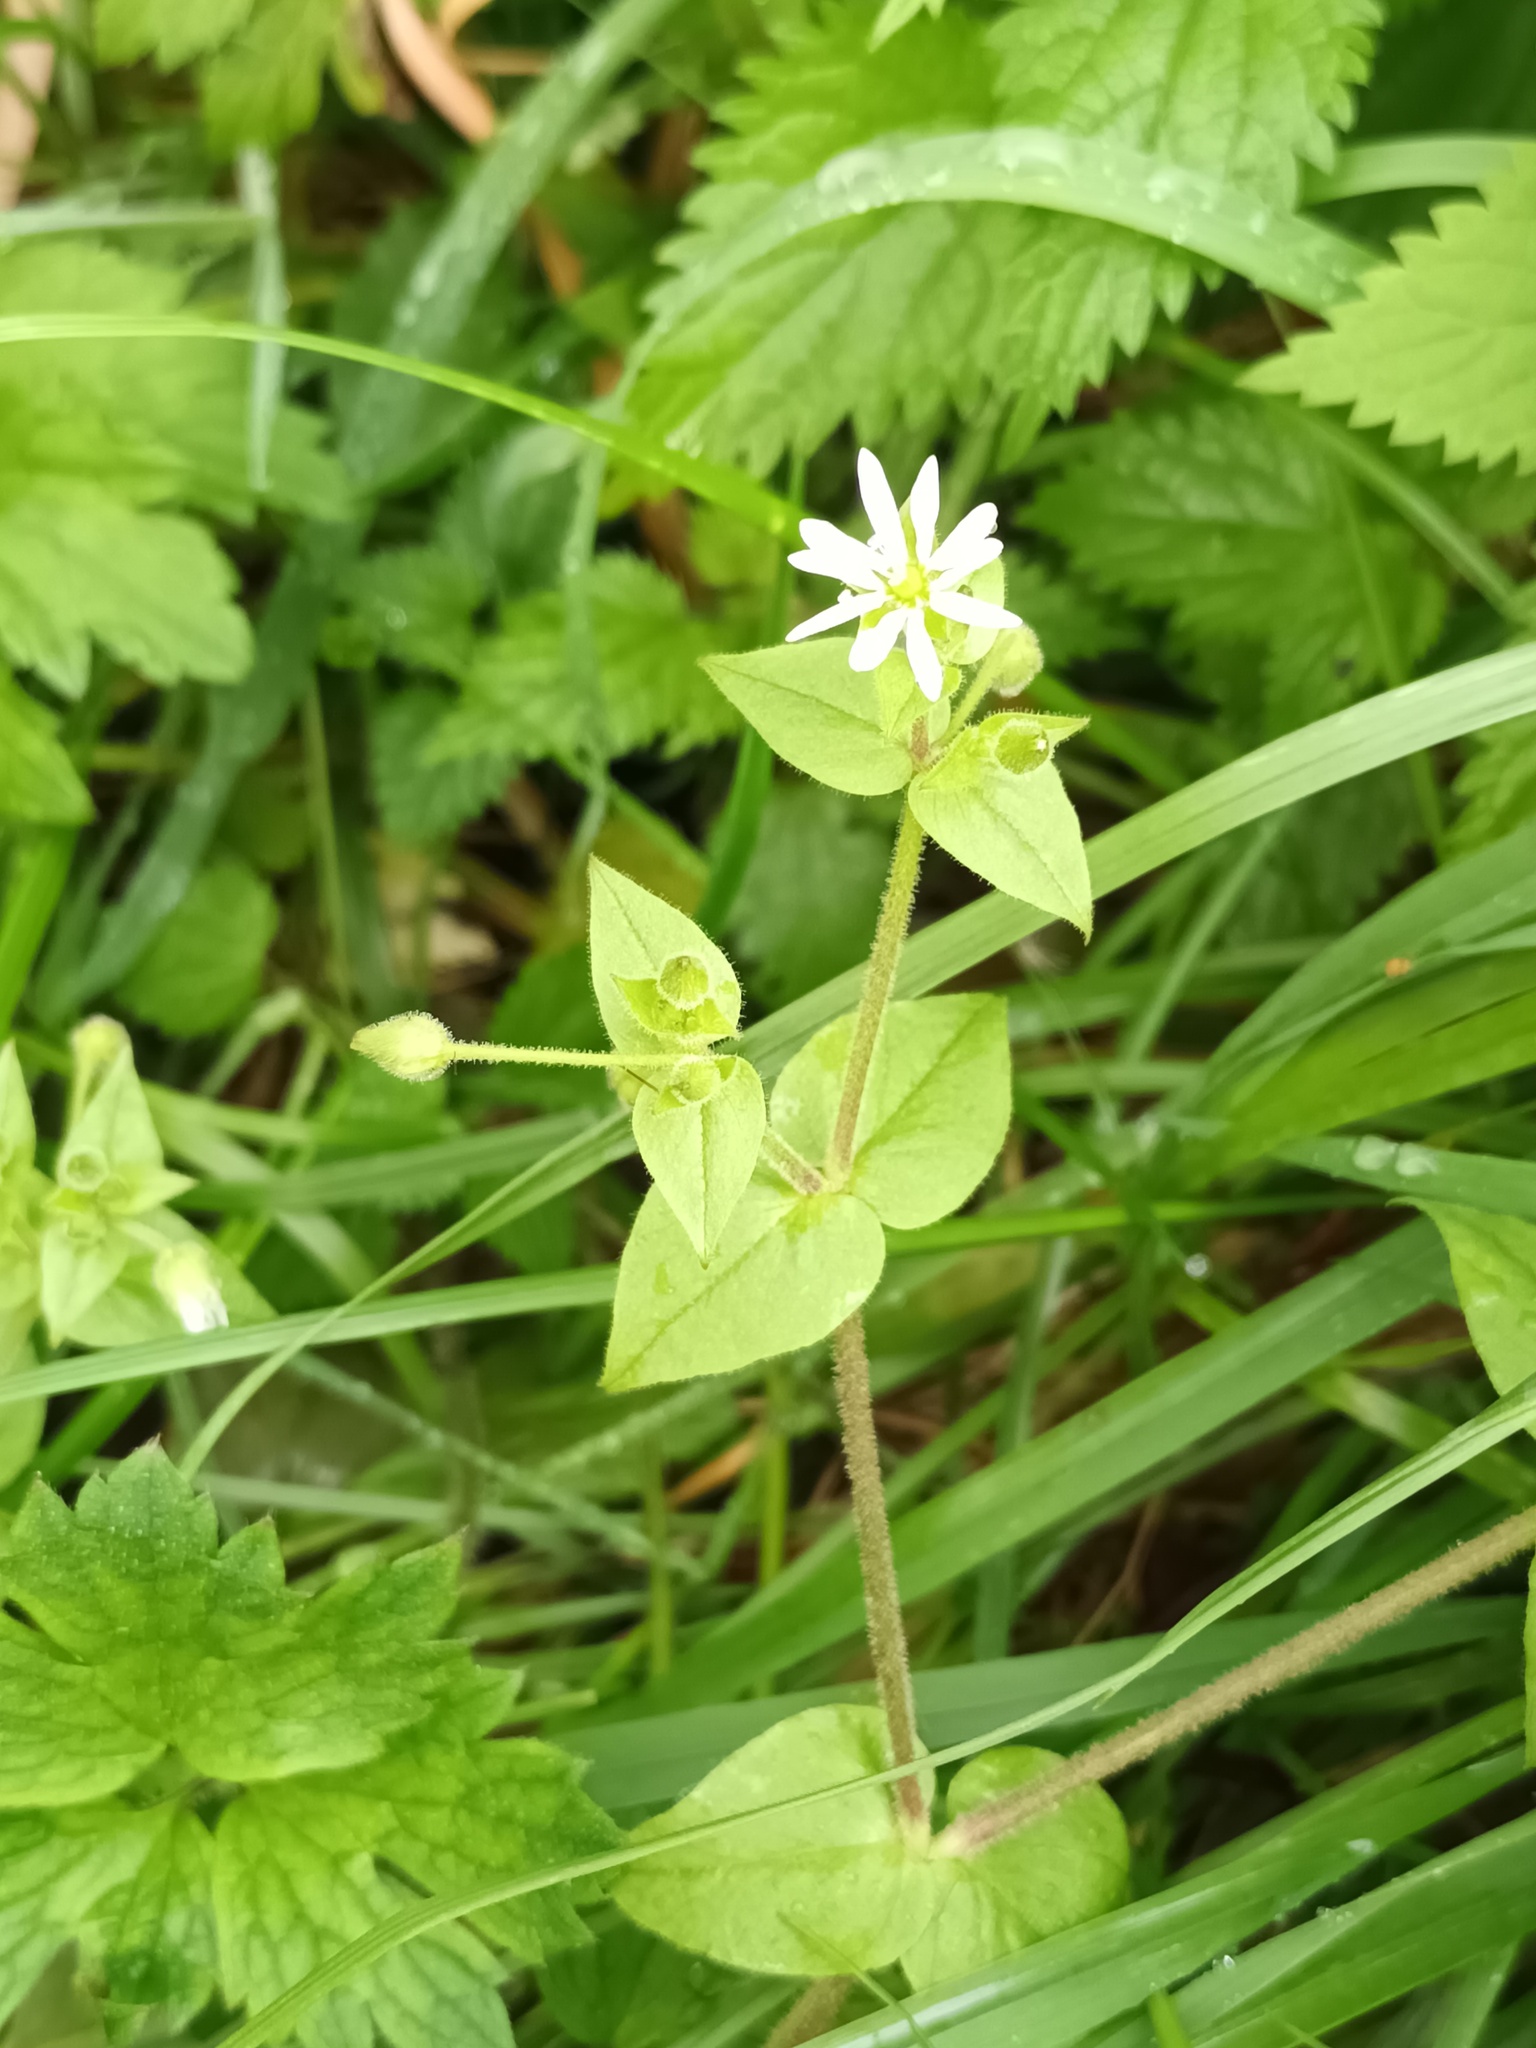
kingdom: Plantae
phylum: Tracheophyta
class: Magnoliopsida
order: Caryophyllales
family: Caryophyllaceae
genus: Stellaria
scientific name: Stellaria aquatica
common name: Water chickweed
